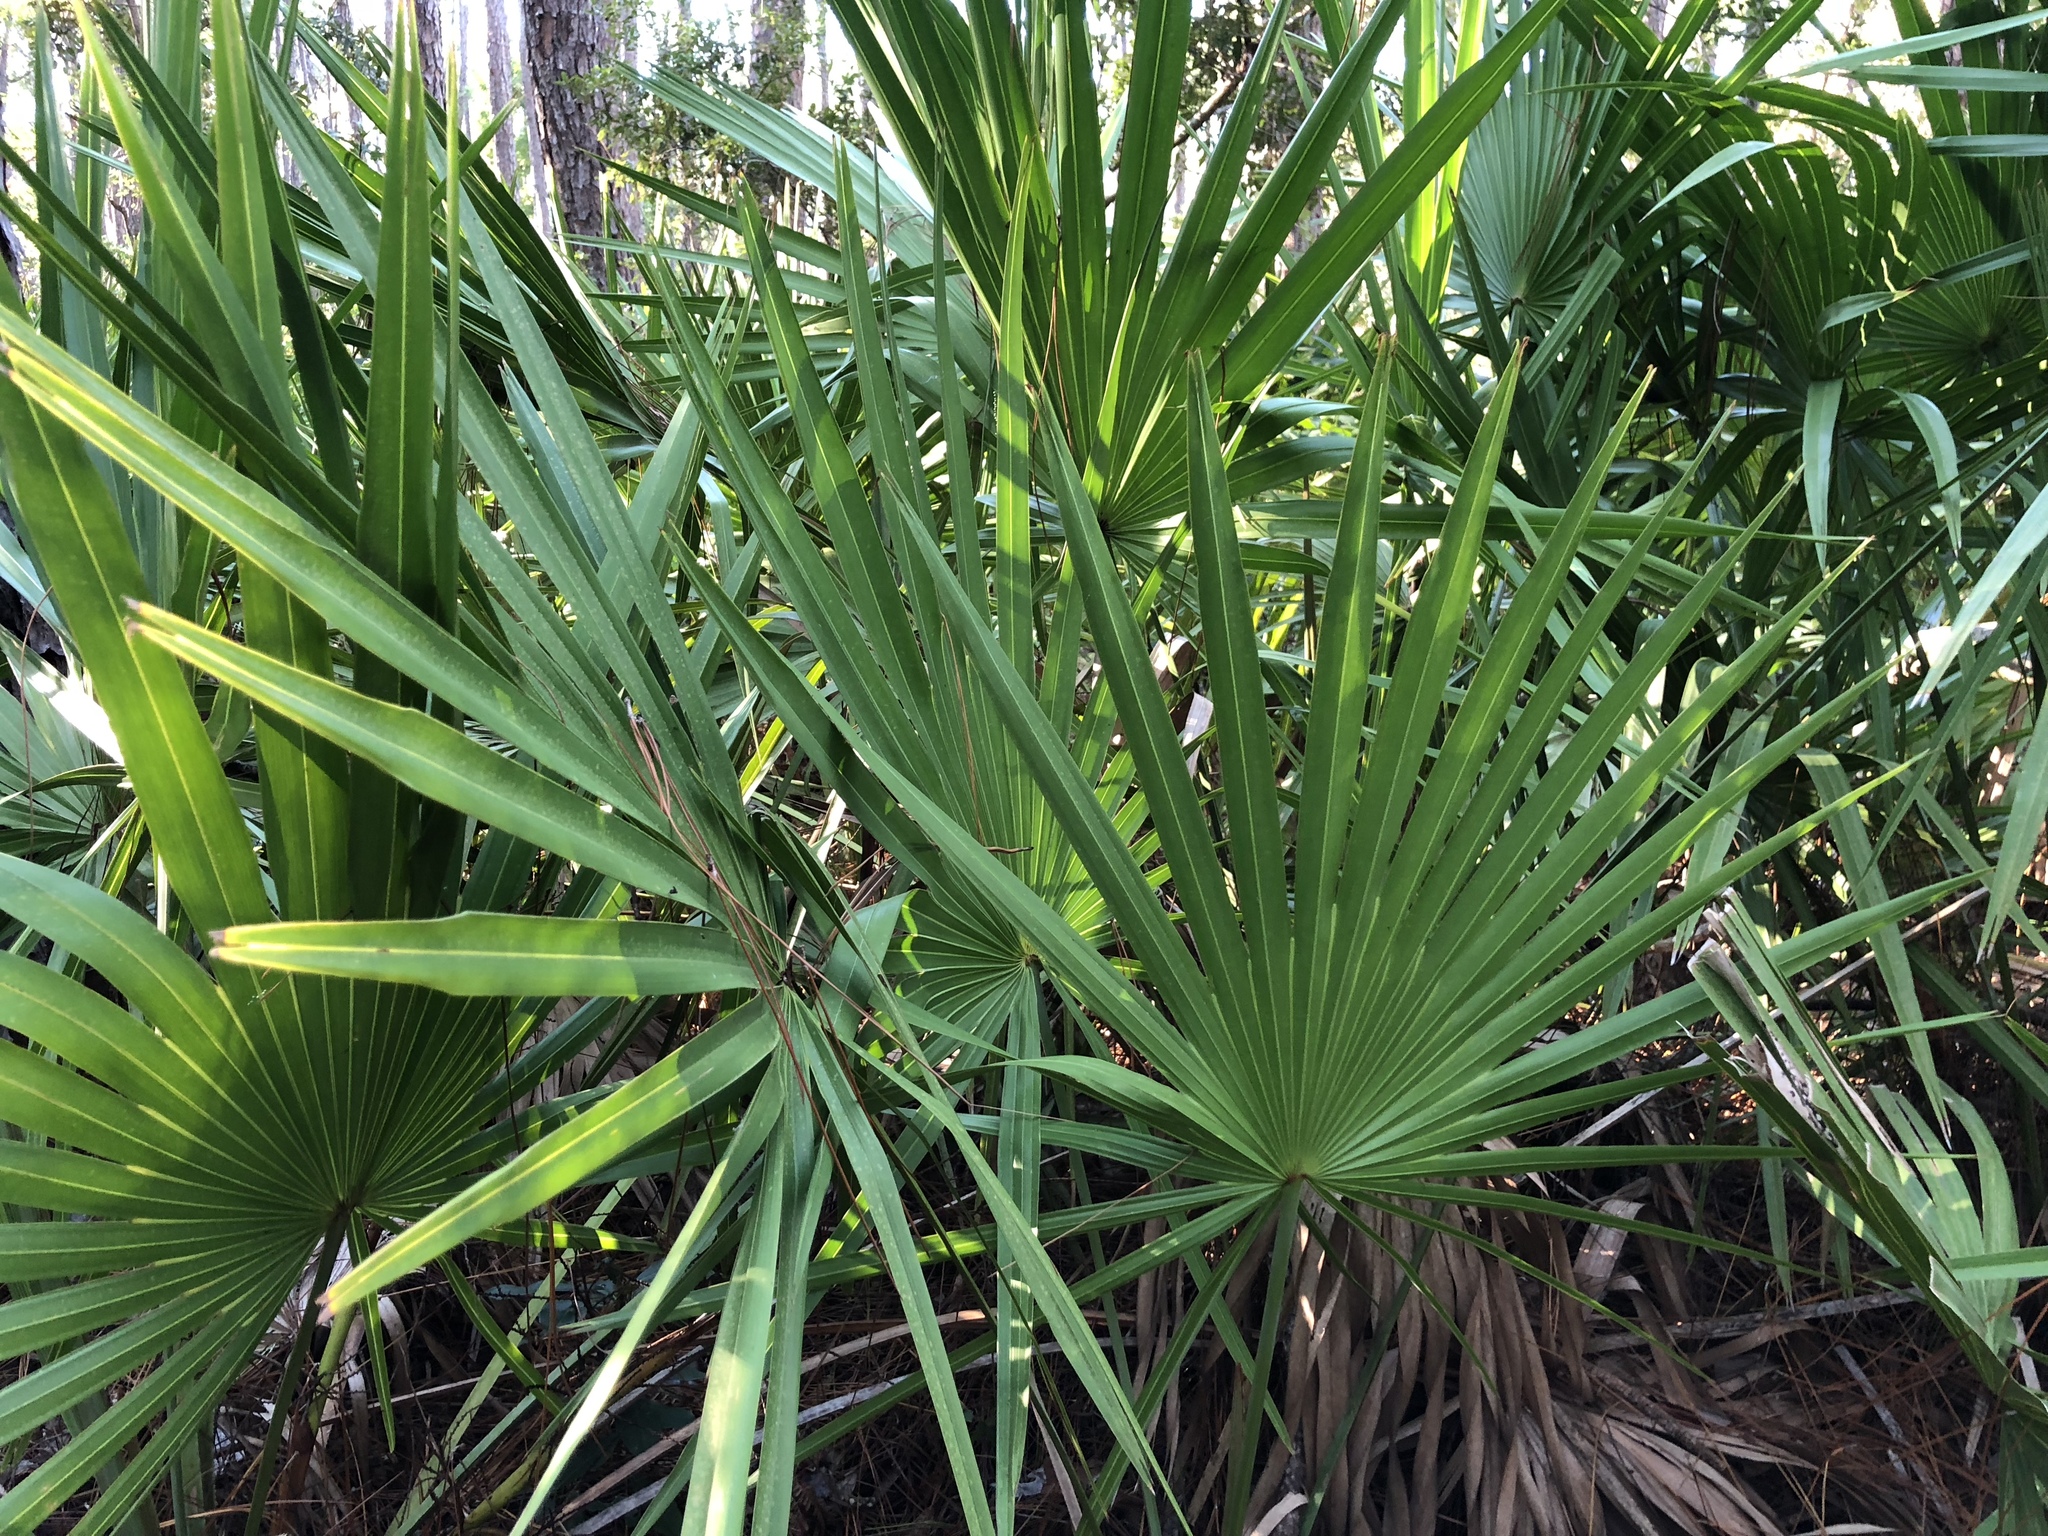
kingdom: Plantae
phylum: Tracheophyta
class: Liliopsida
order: Arecales
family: Arecaceae
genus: Serenoa
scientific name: Serenoa repens
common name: Saw-palmetto
